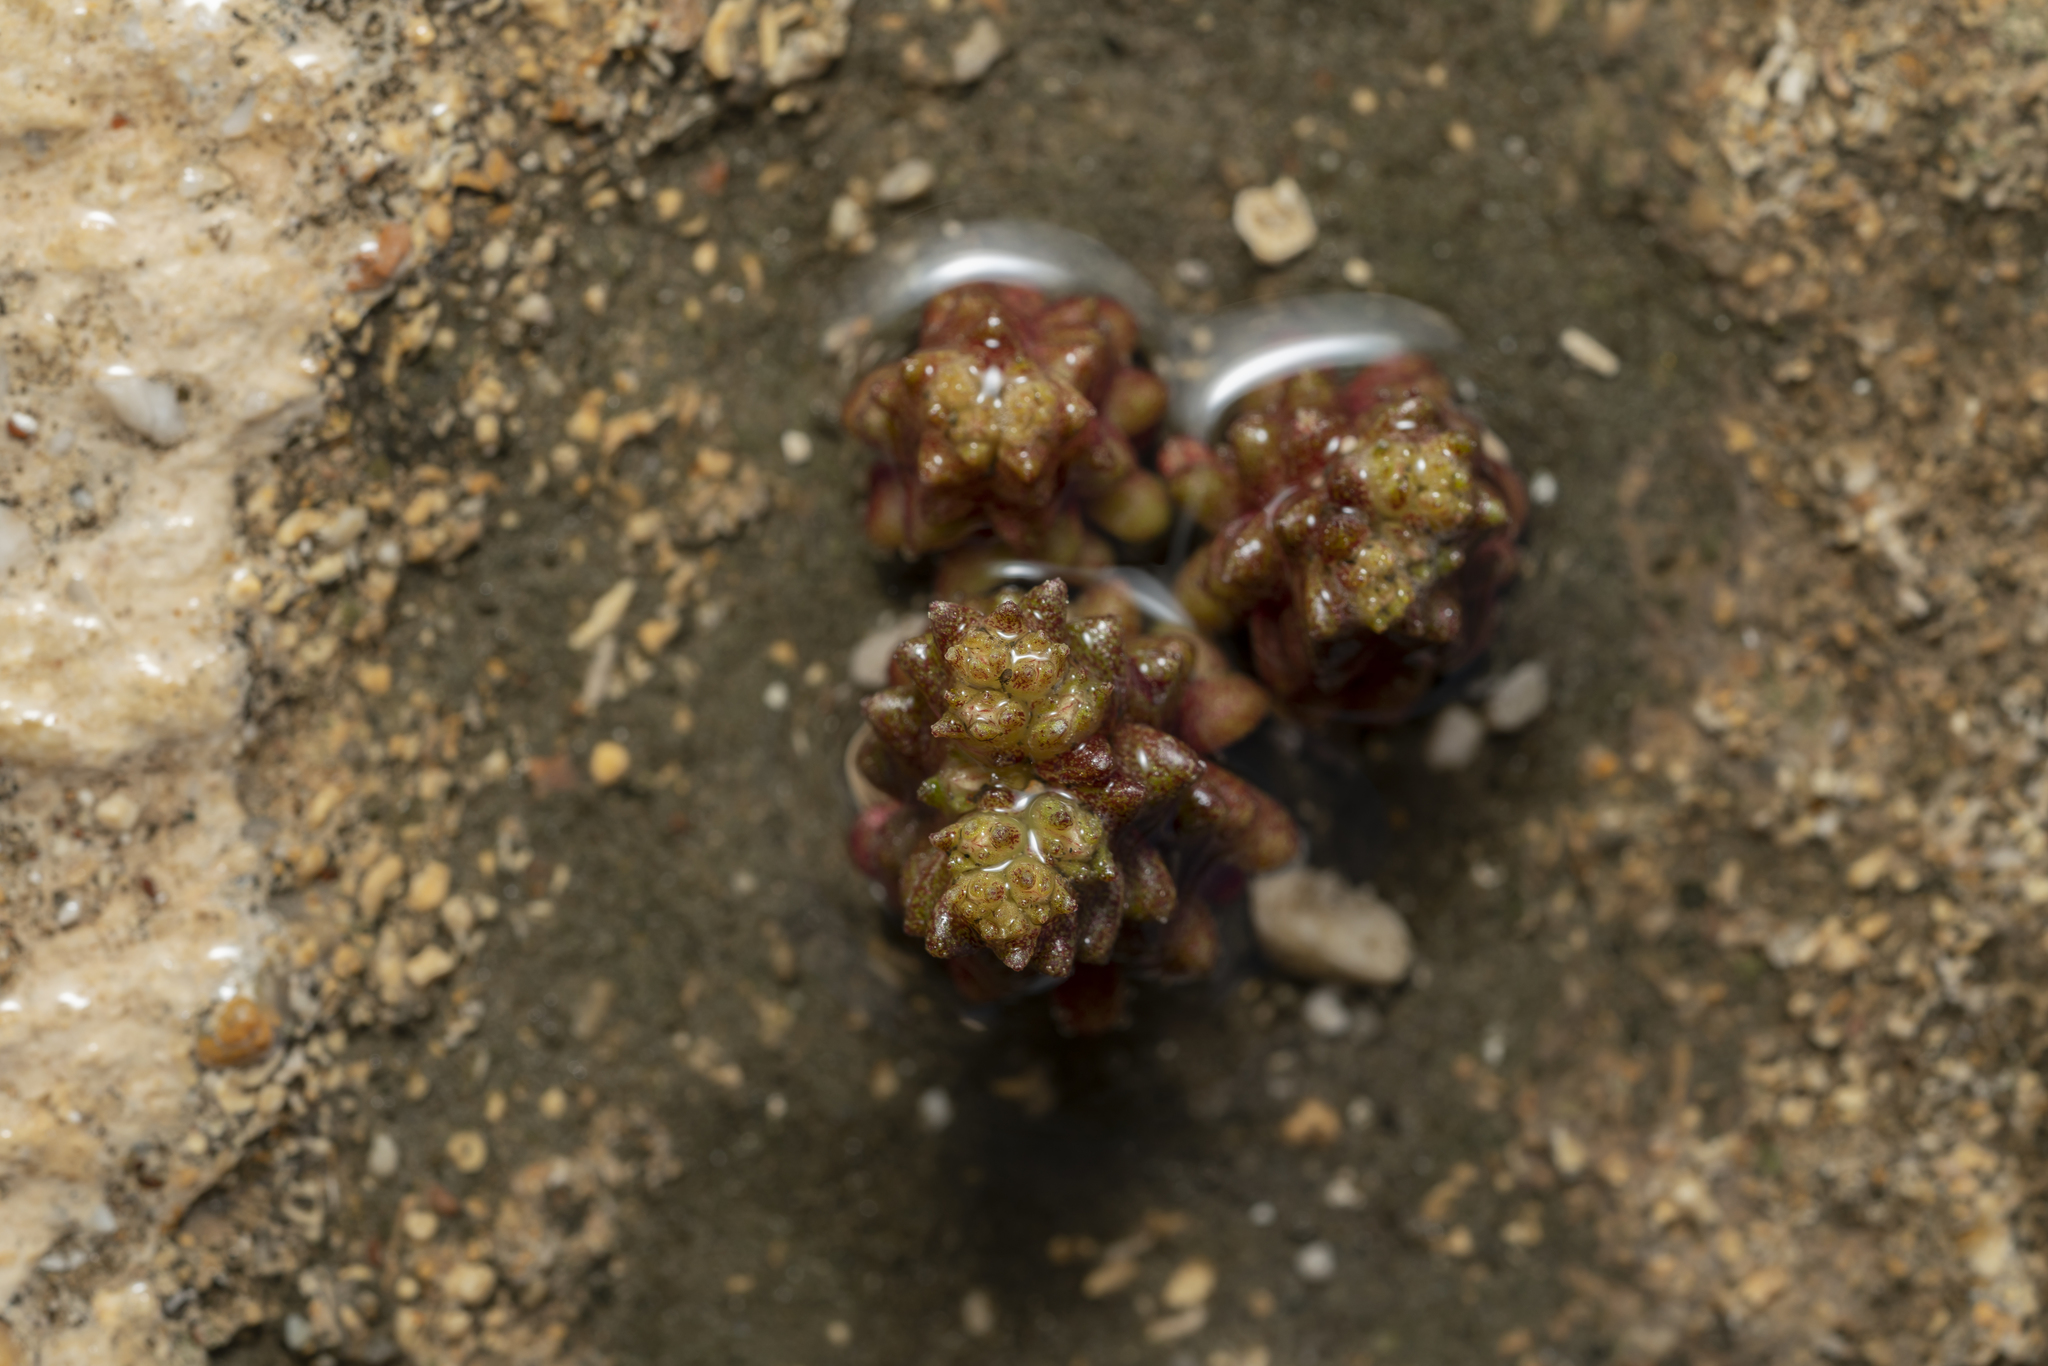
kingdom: Plantae
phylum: Tracheophyta
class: Magnoliopsida
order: Saxifragales
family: Crassulaceae
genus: Sedum
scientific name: Sedum litoreum
